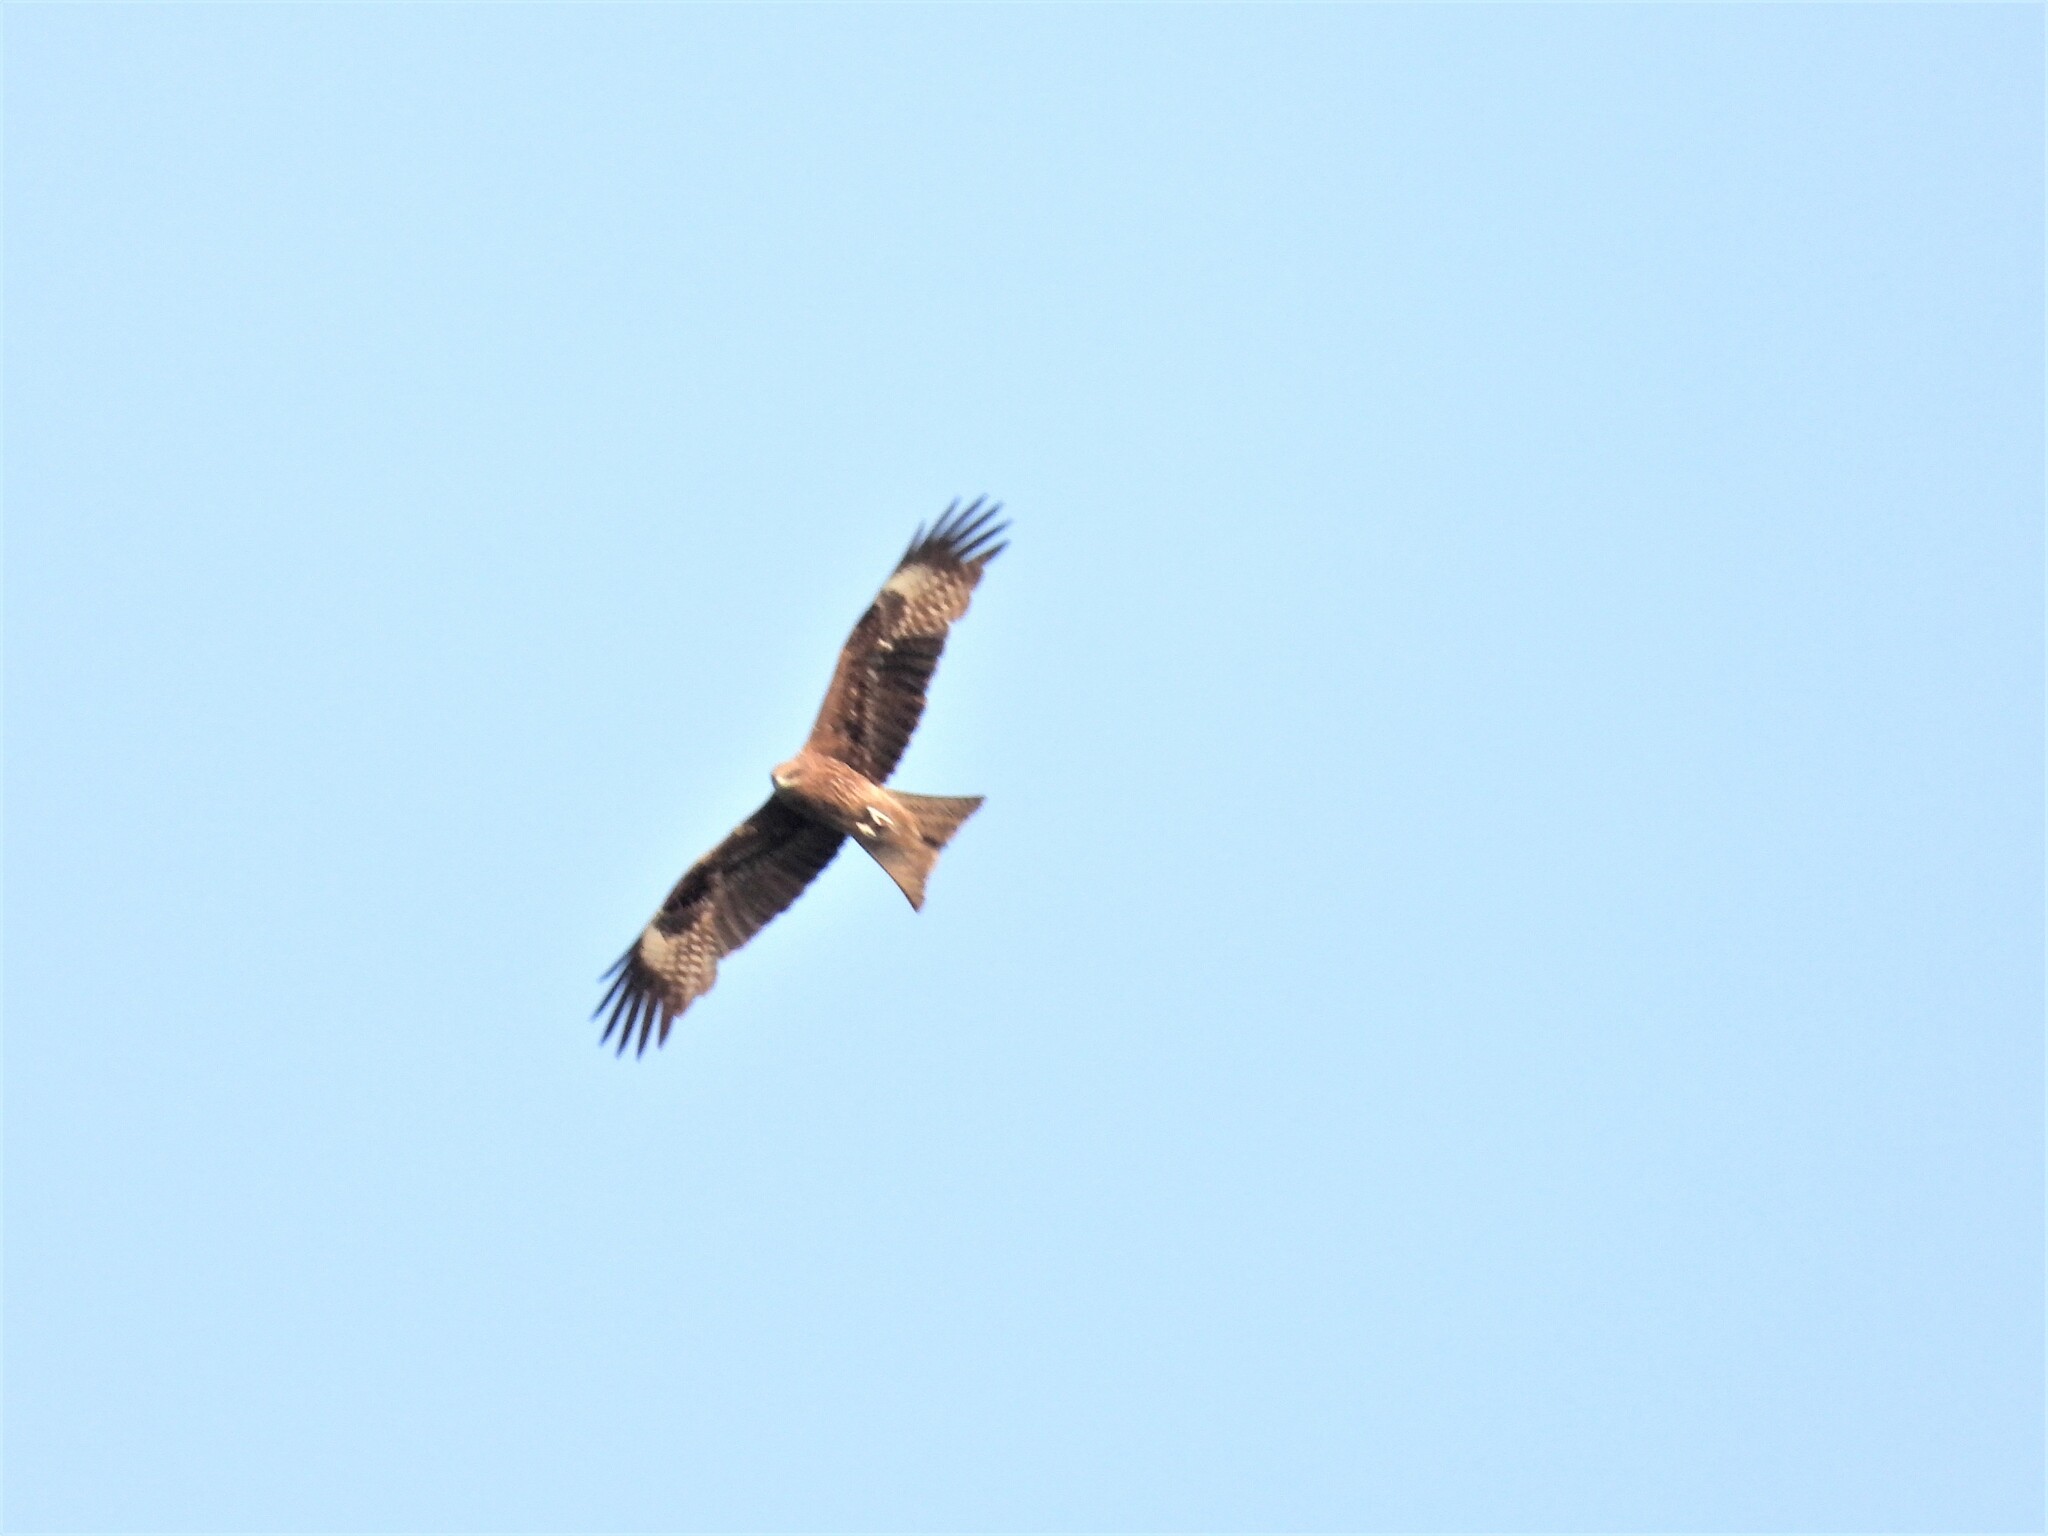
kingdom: Animalia
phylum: Chordata
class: Aves
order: Accipitriformes
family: Accipitridae
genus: Milvus
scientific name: Milvus migrans
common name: Black kite
